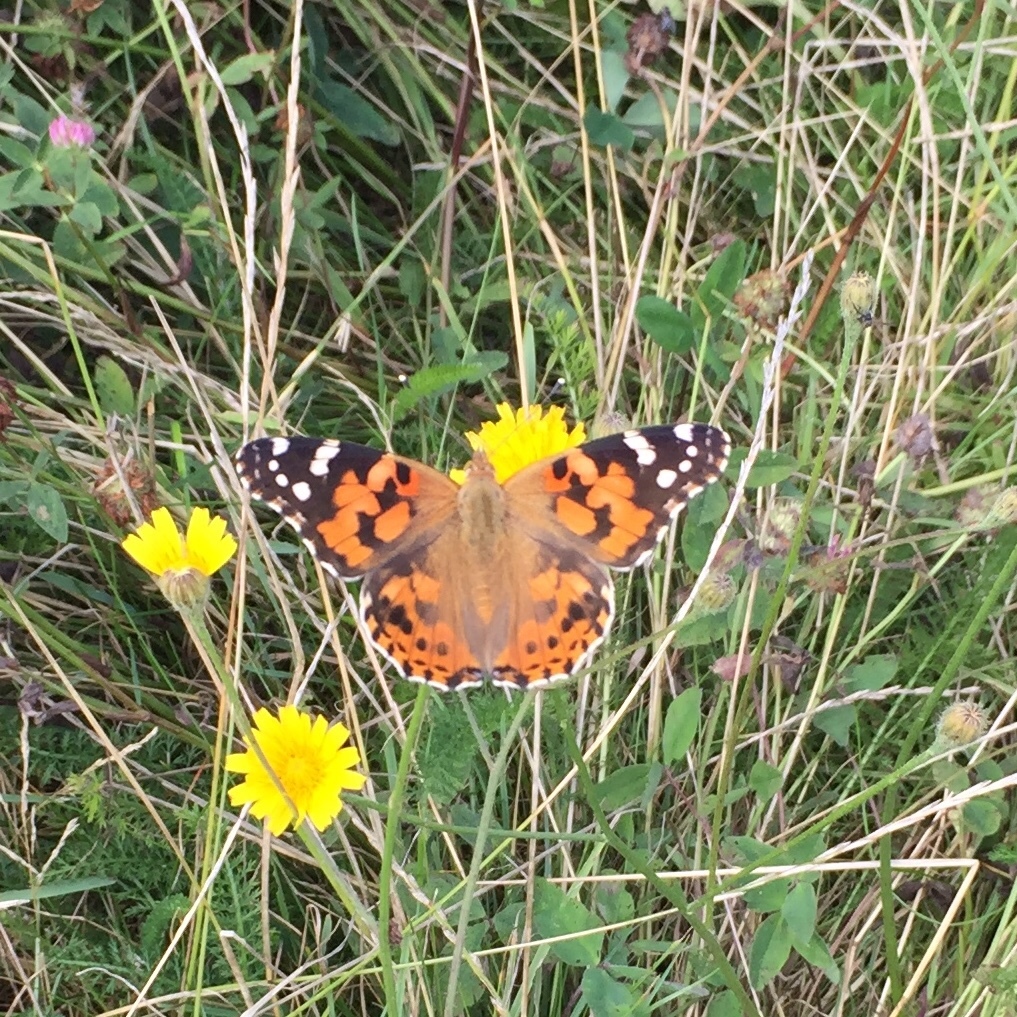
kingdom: Animalia
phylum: Arthropoda
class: Insecta
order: Lepidoptera
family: Nymphalidae
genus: Vanessa
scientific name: Vanessa cardui
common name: Painted lady
